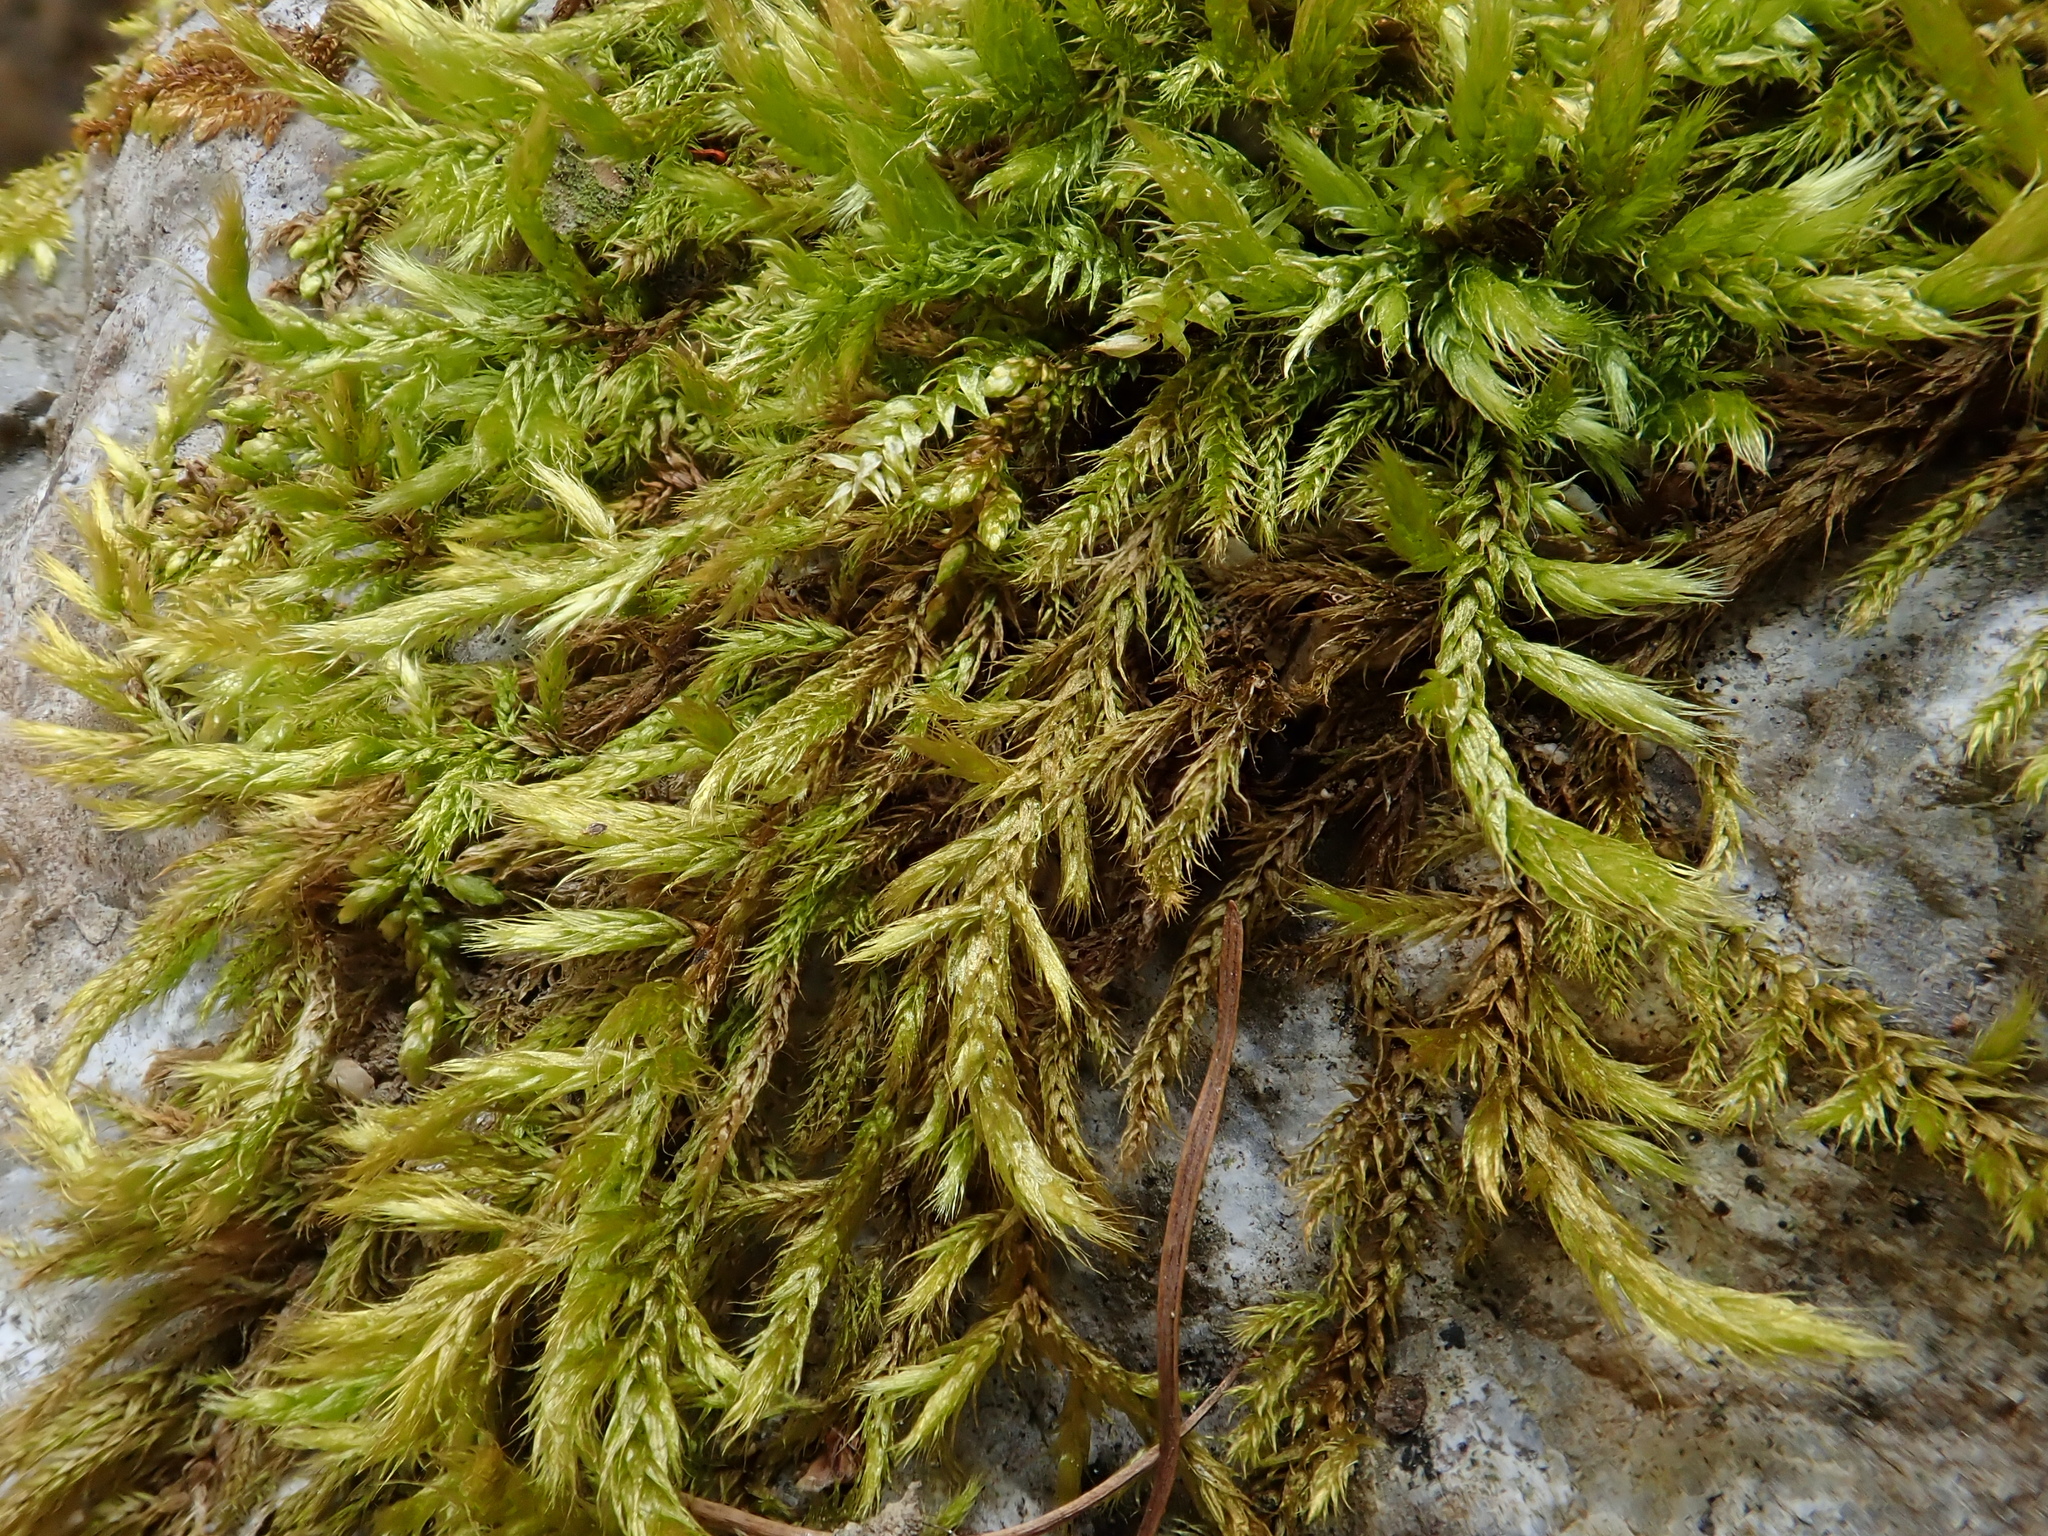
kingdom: Plantae
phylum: Bryophyta
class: Bryopsida
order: Hypnales
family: Brachytheciaceae
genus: Brachythecium
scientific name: Brachythecium glareosum
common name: Streaky feather-moss
